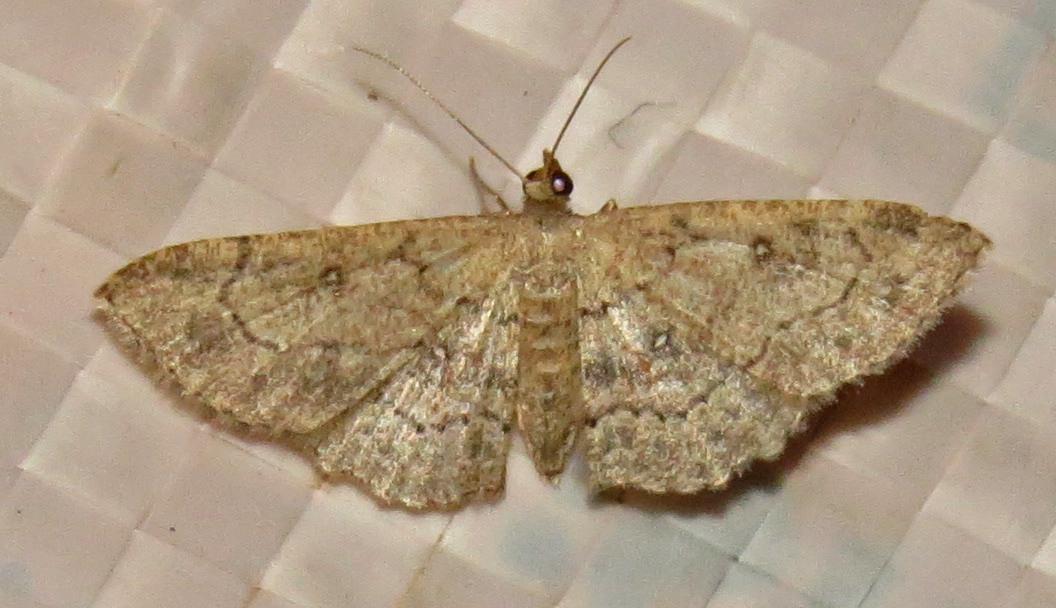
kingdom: Animalia
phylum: Arthropoda
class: Insecta
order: Lepidoptera
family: Geometridae
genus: Cyclophora
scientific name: Cyclophora nanaria
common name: Cankerworm
